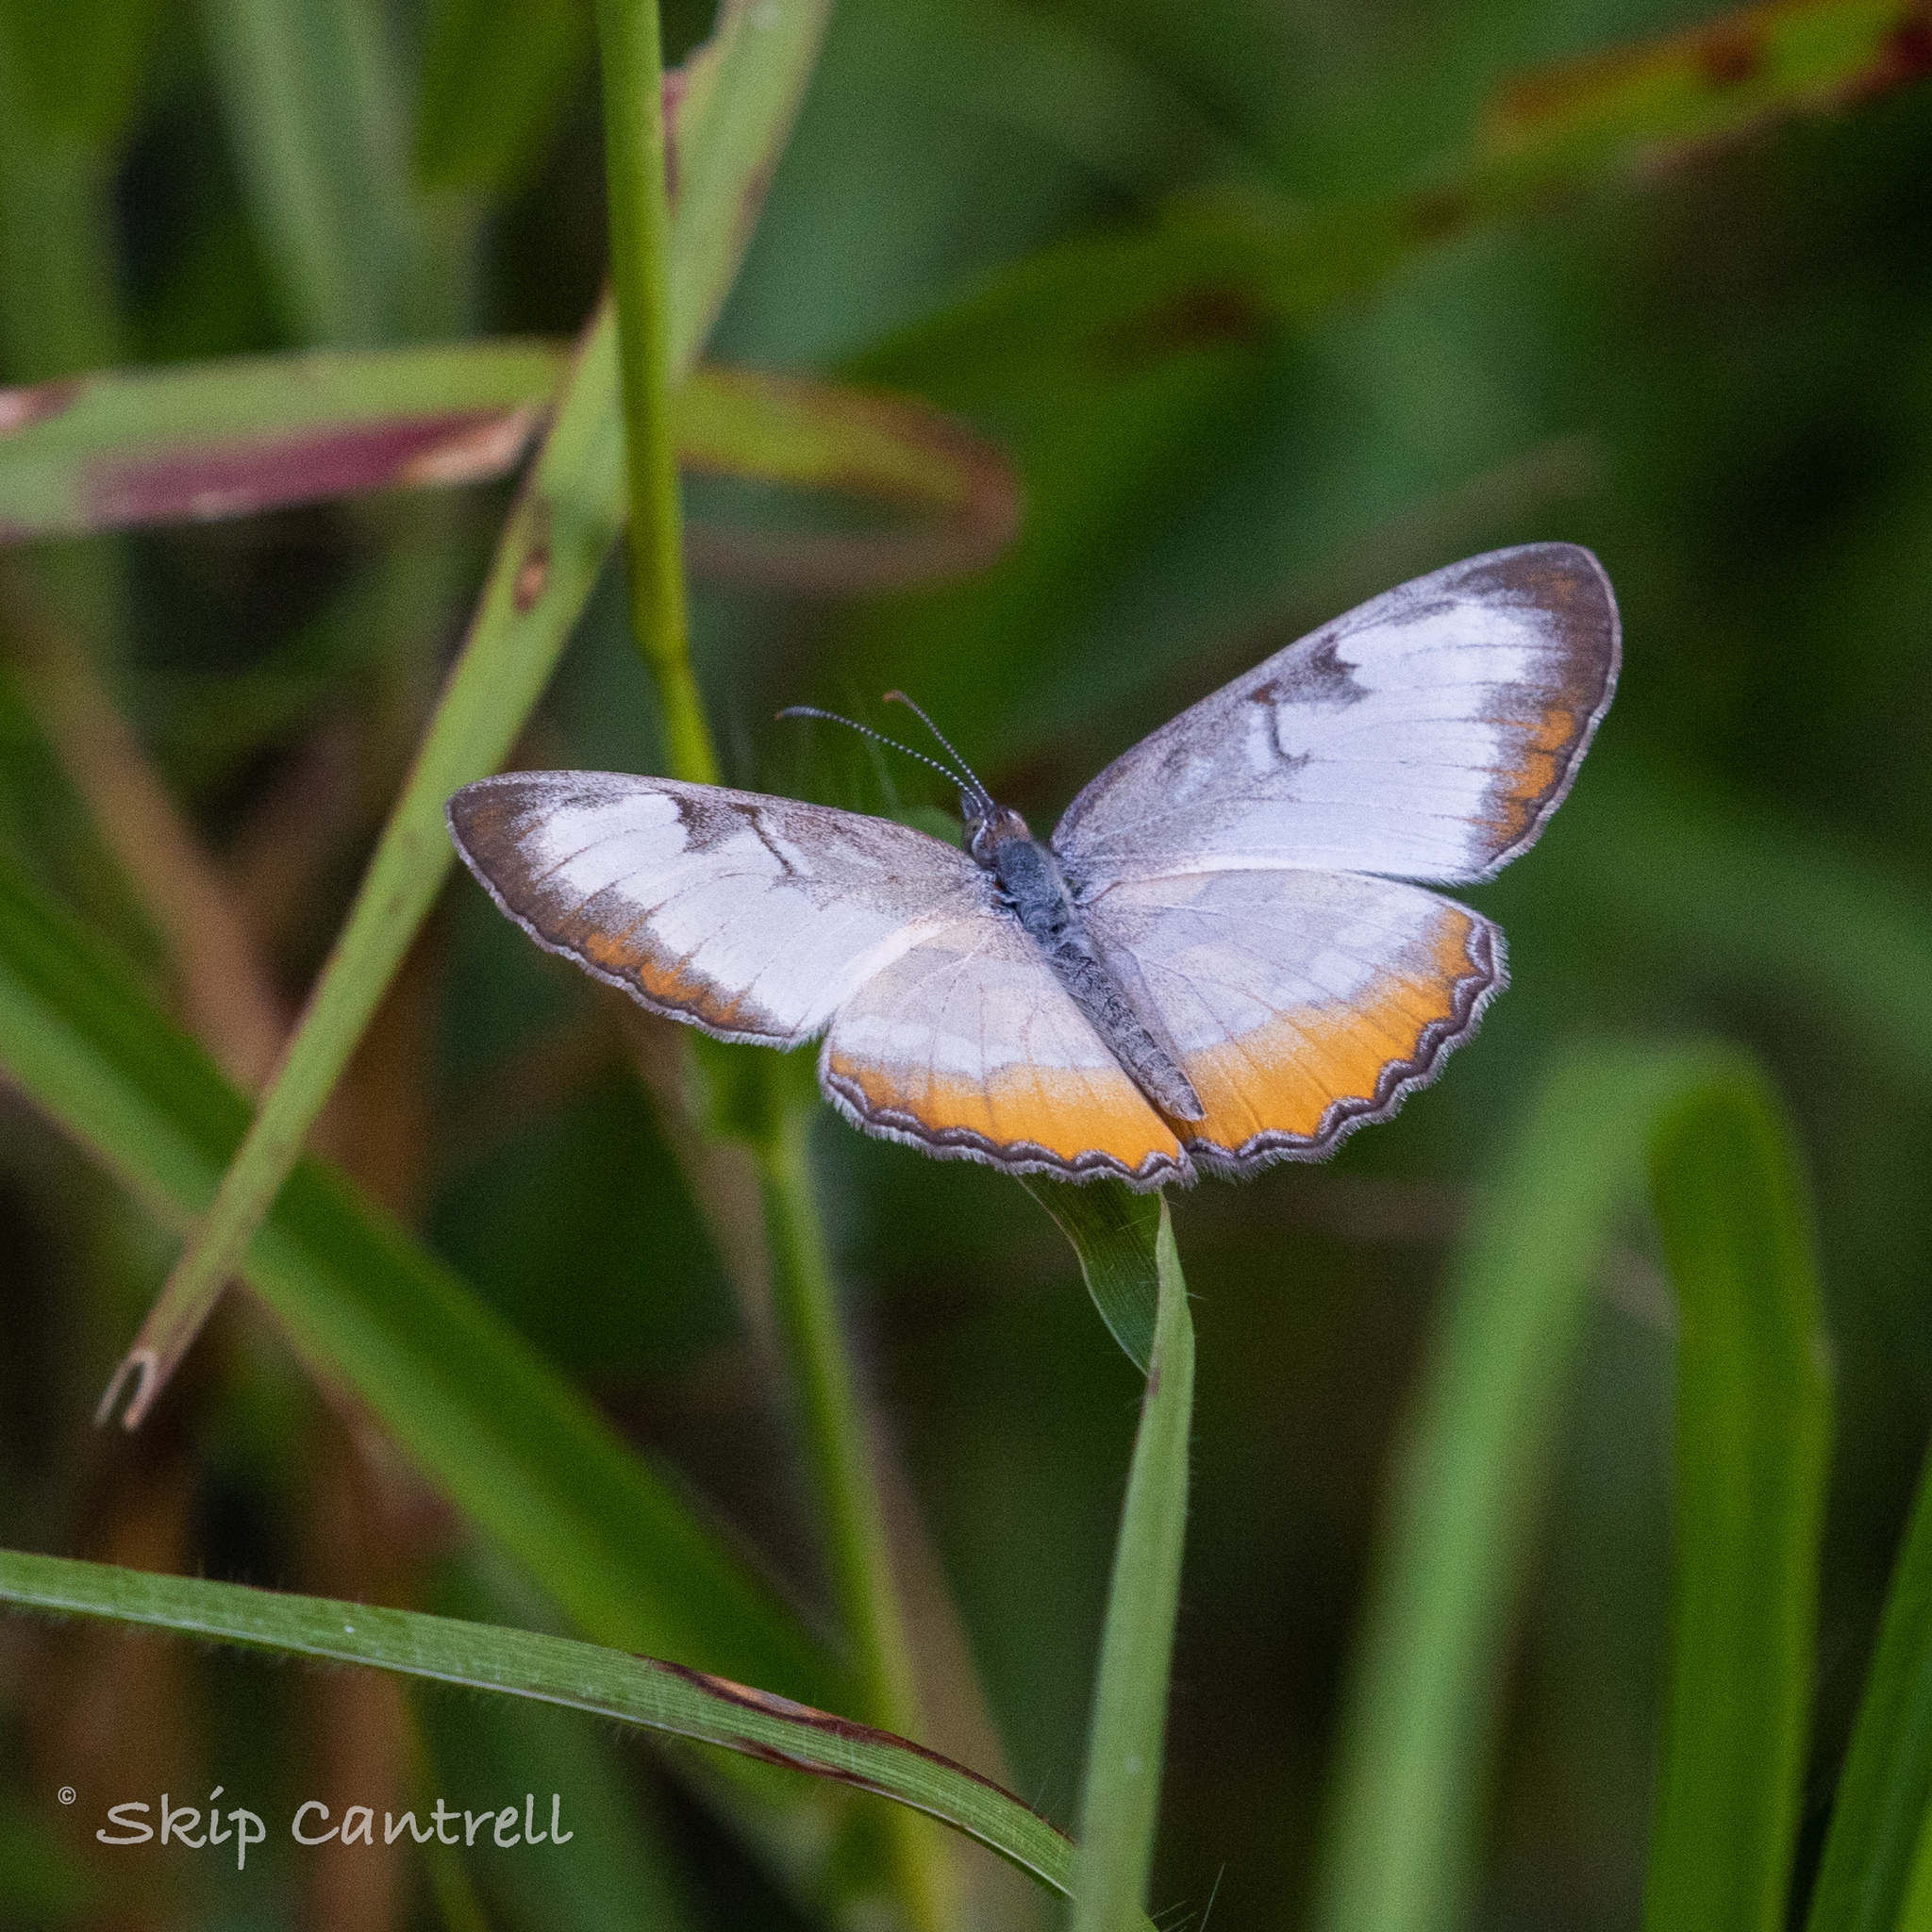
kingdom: Animalia
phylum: Arthropoda
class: Insecta
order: Lepidoptera
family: Nymphalidae
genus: Mestra
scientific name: Mestra amymone
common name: Common mestra
